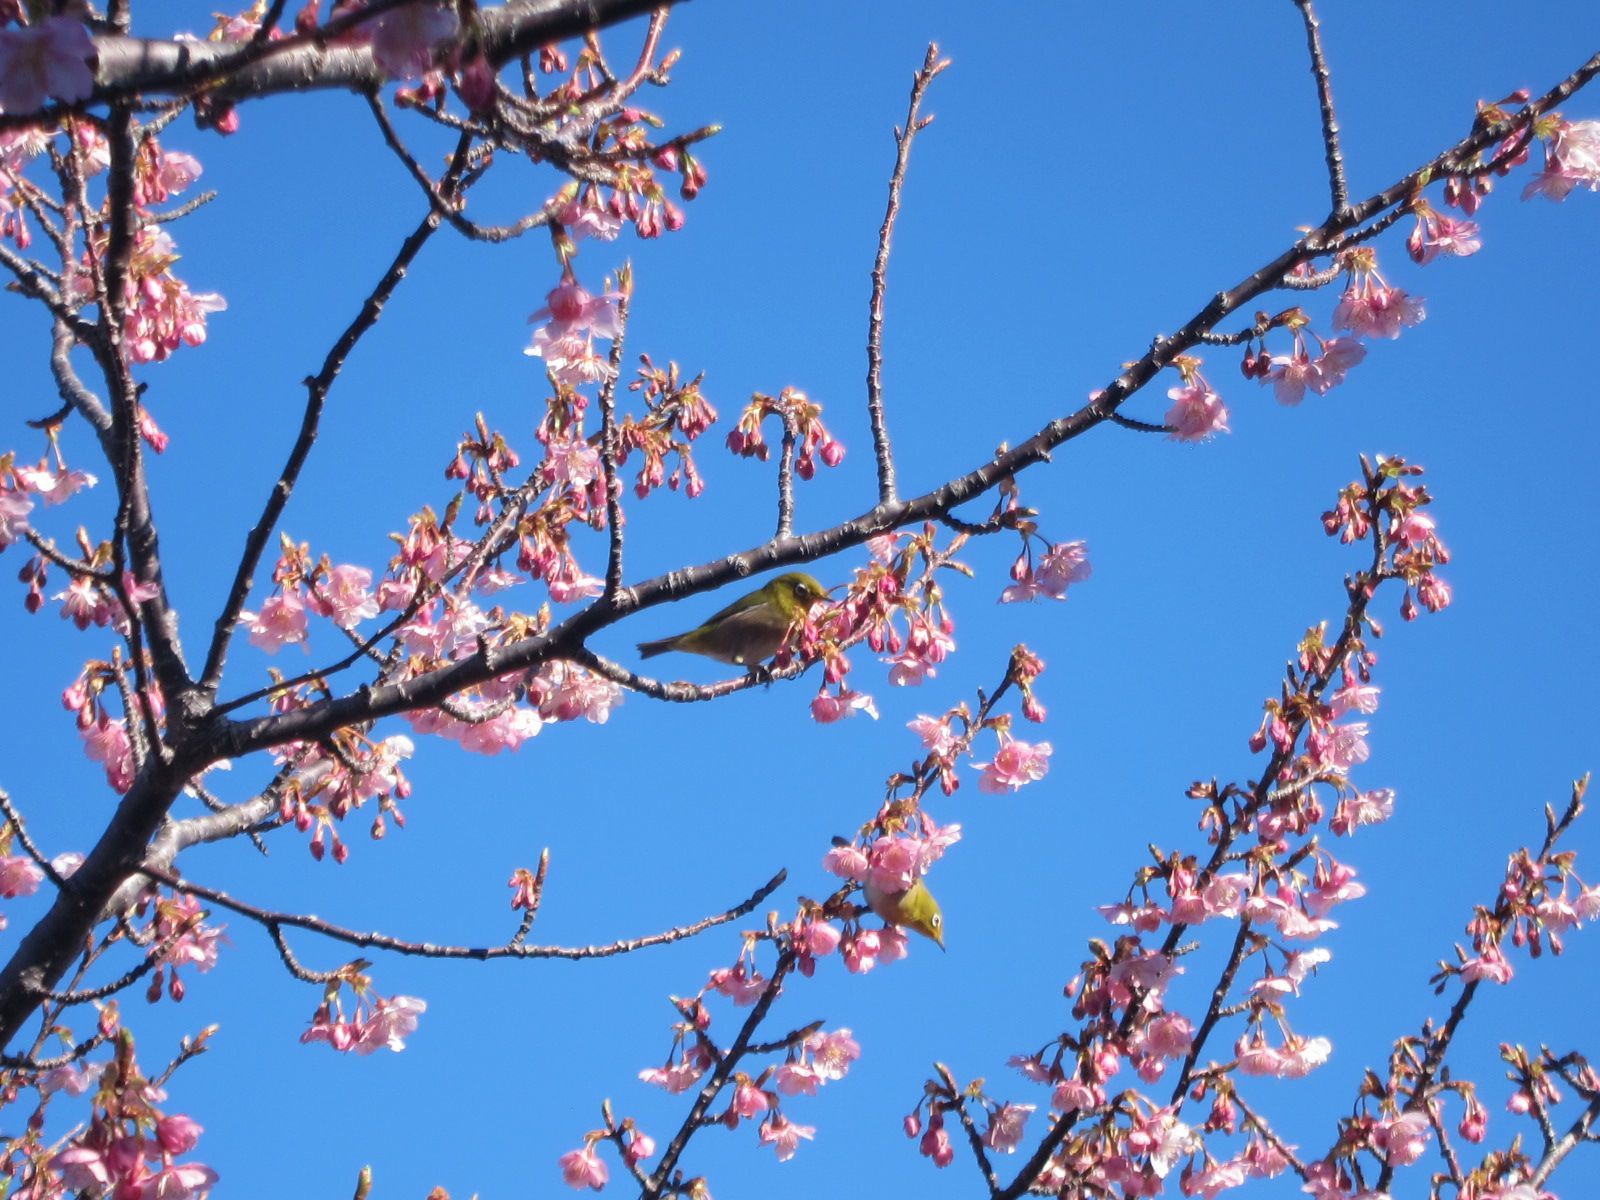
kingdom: Animalia
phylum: Chordata
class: Aves
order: Passeriformes
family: Zosteropidae
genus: Zosterops
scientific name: Zosterops japonicus
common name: Japanese white-eye
